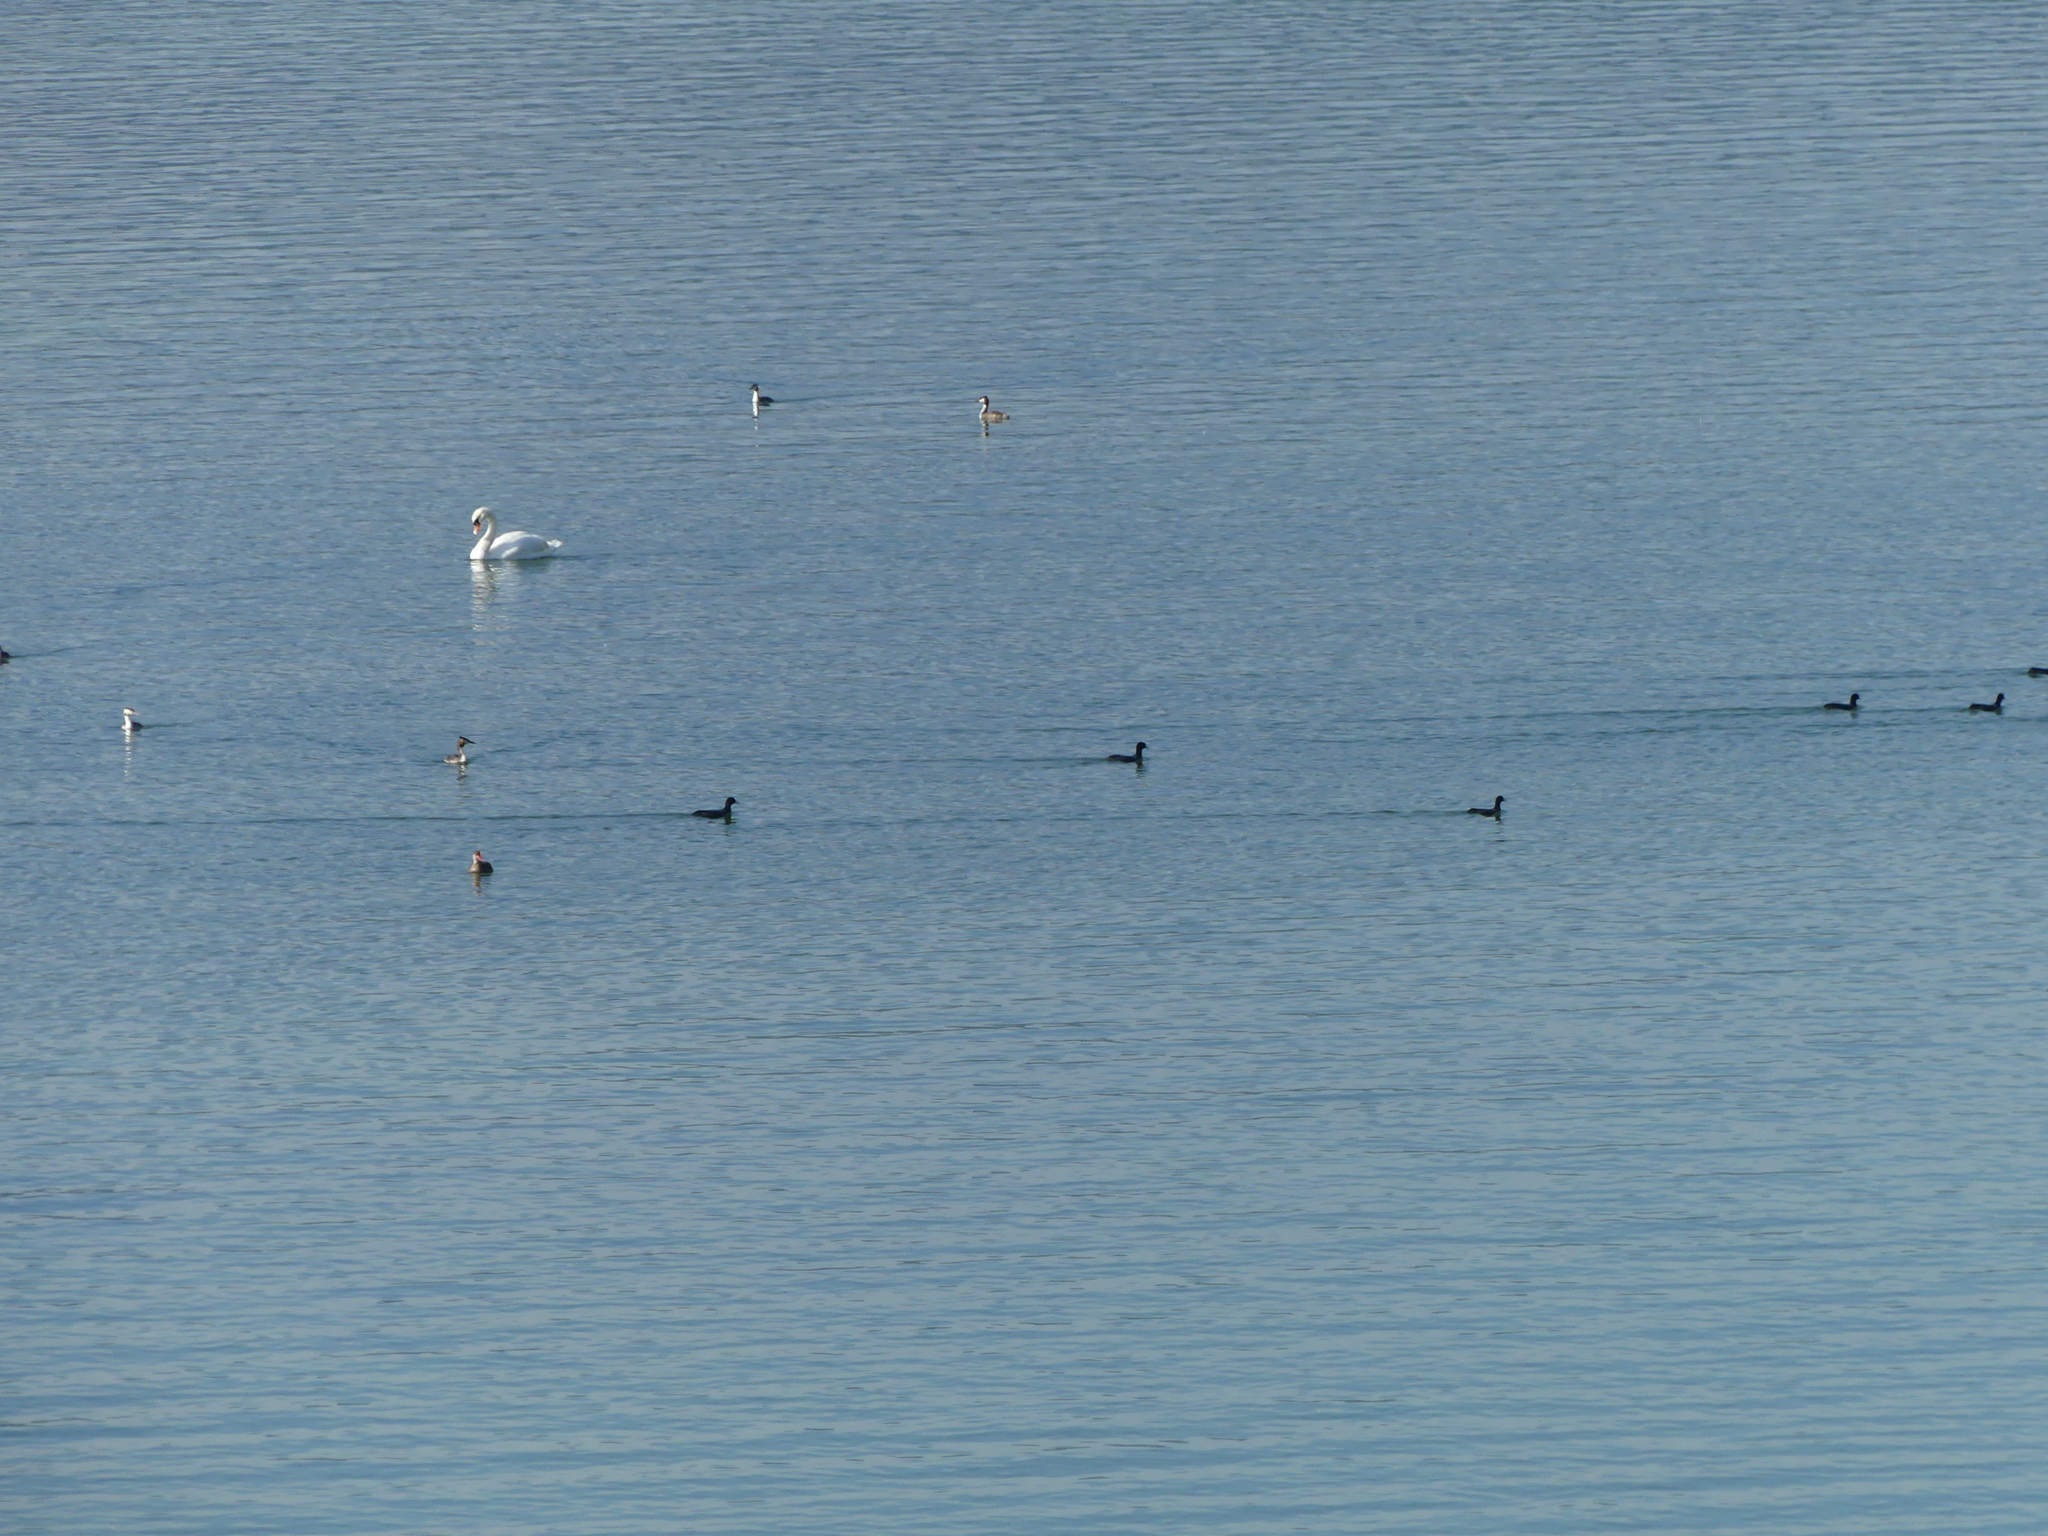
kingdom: Animalia
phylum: Chordata
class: Aves
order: Gruiformes
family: Rallidae
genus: Fulica
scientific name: Fulica atra
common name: Eurasian coot
